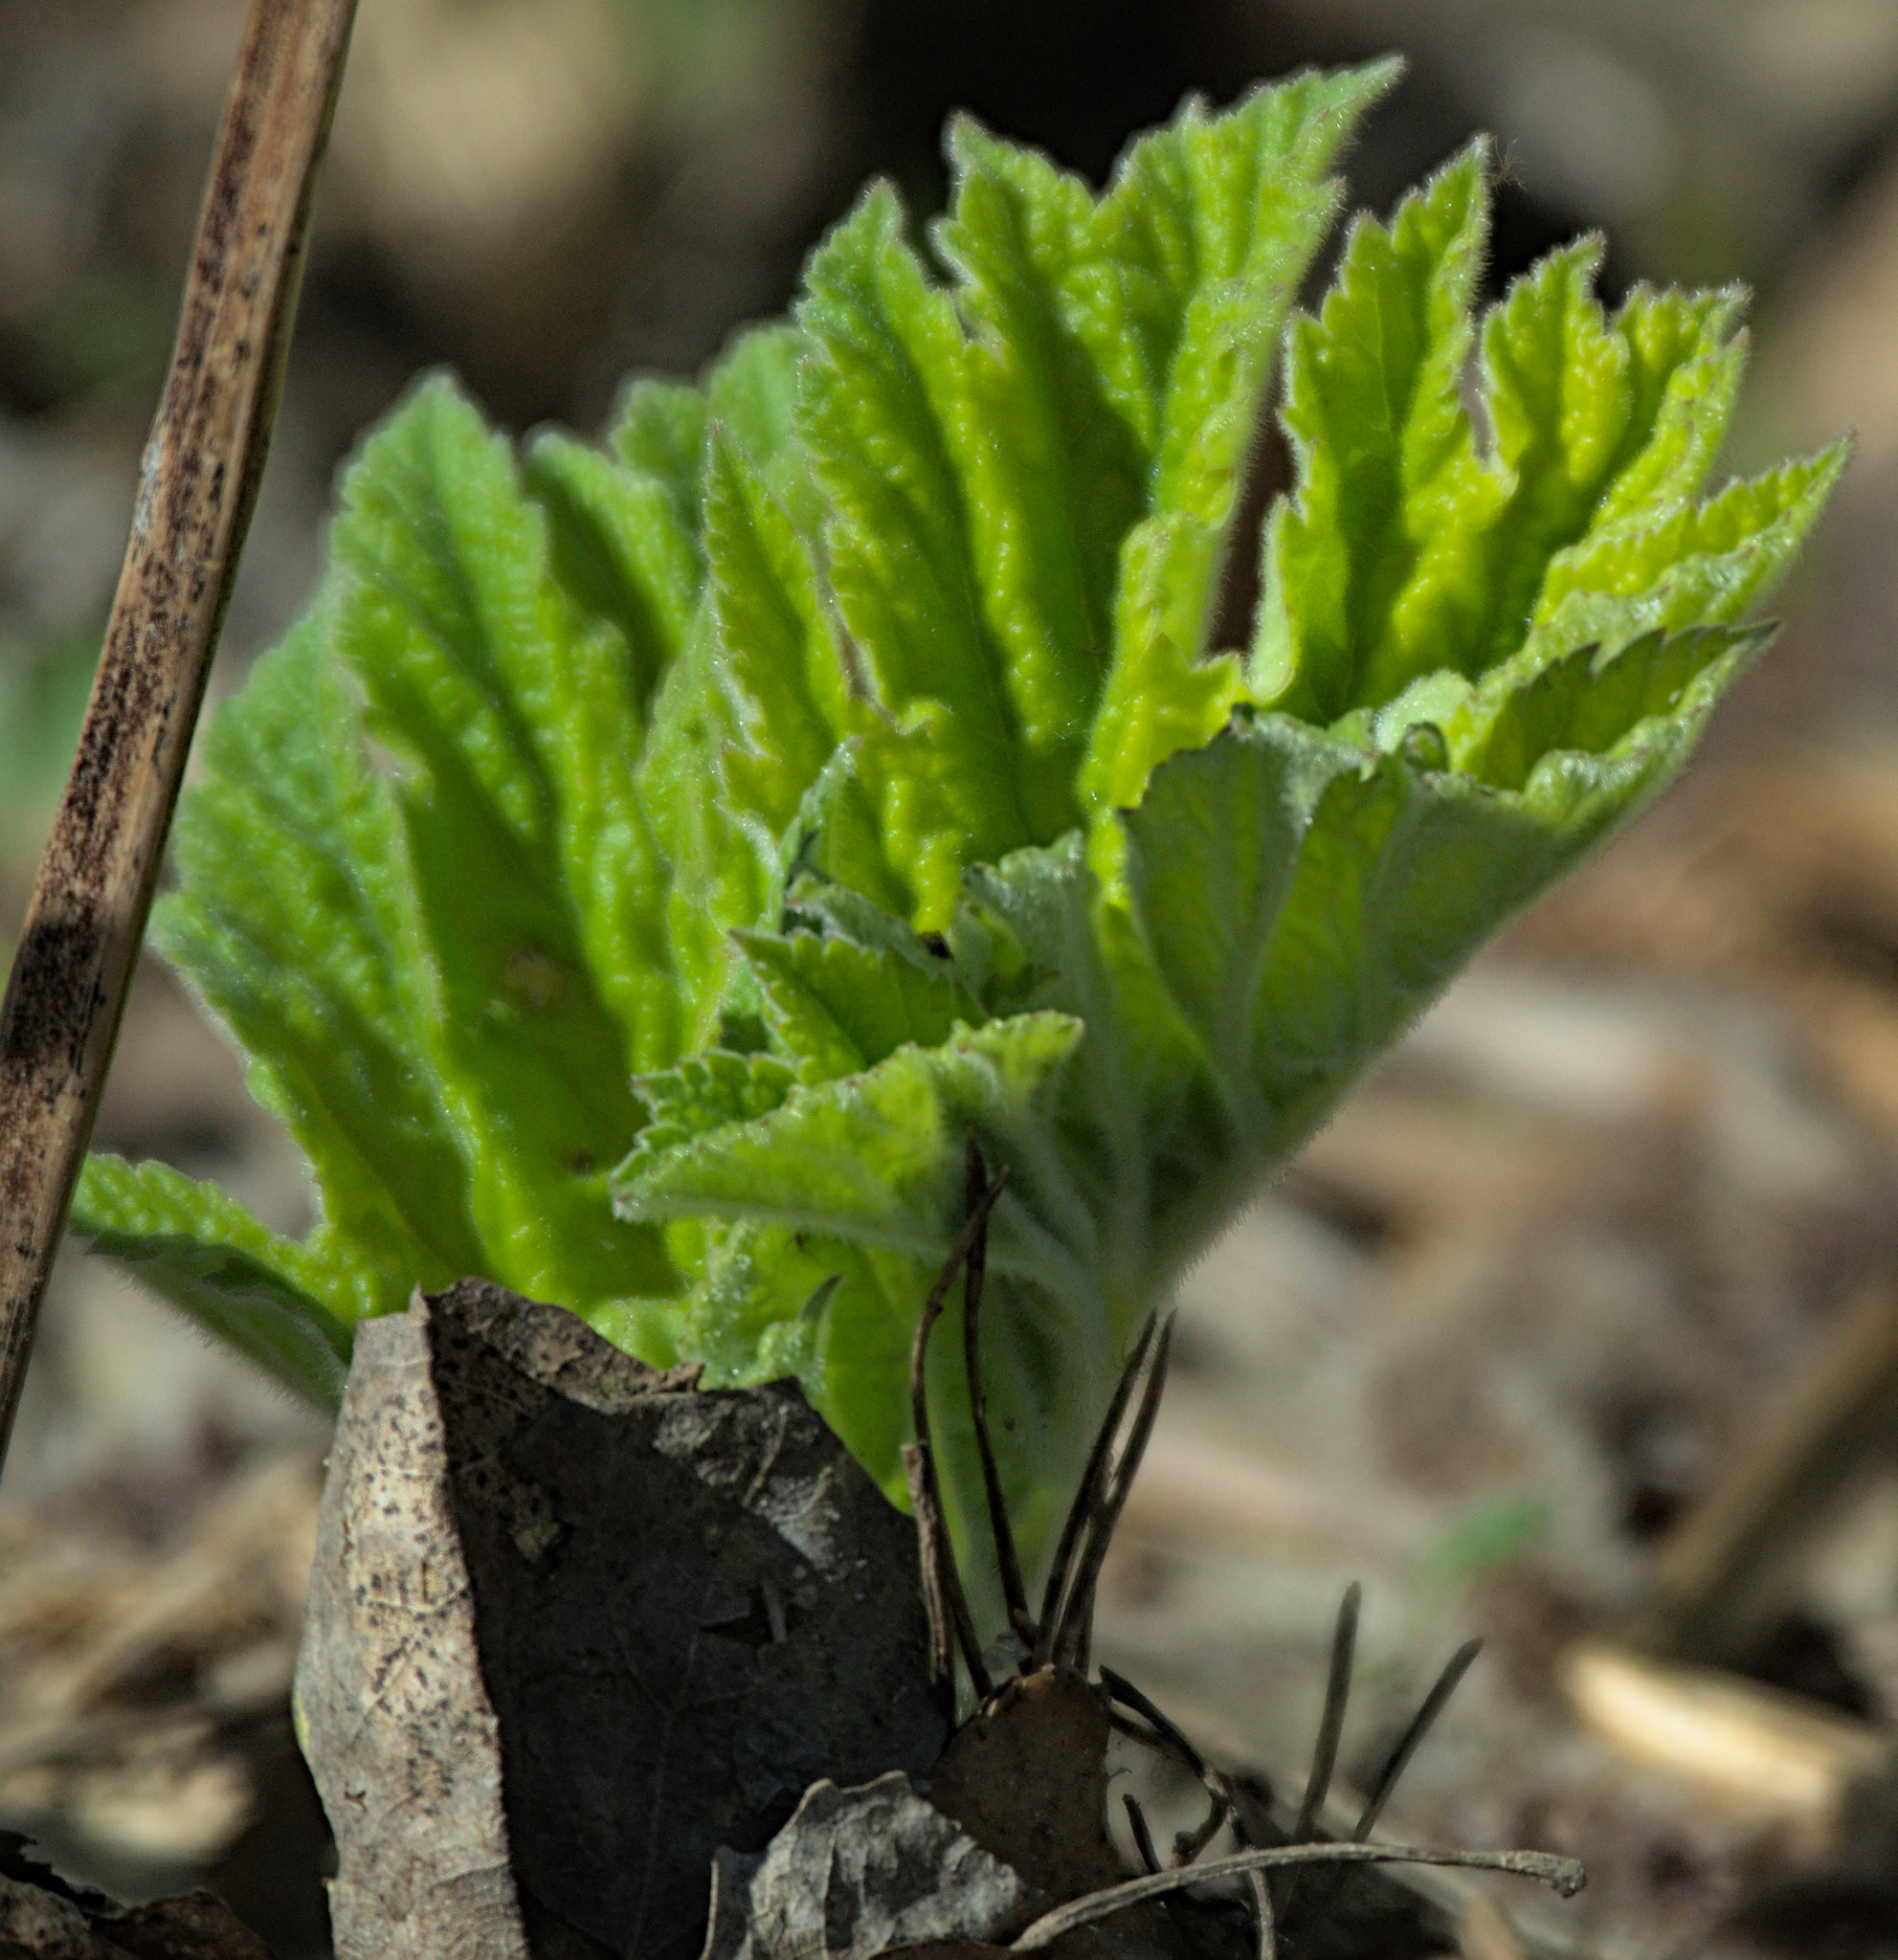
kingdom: Plantae
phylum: Tracheophyta
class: Magnoliopsida
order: Apiales
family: Apiaceae
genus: Heracleum
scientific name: Heracleum dissectum
